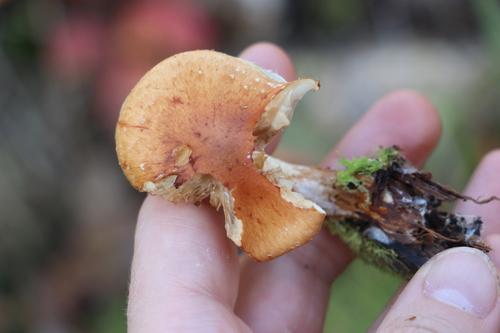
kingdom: Fungi
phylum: Basidiomycota
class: Agaricomycetes
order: Agaricales
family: Strophariaceae
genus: Pholiota
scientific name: Pholiota lubrica
